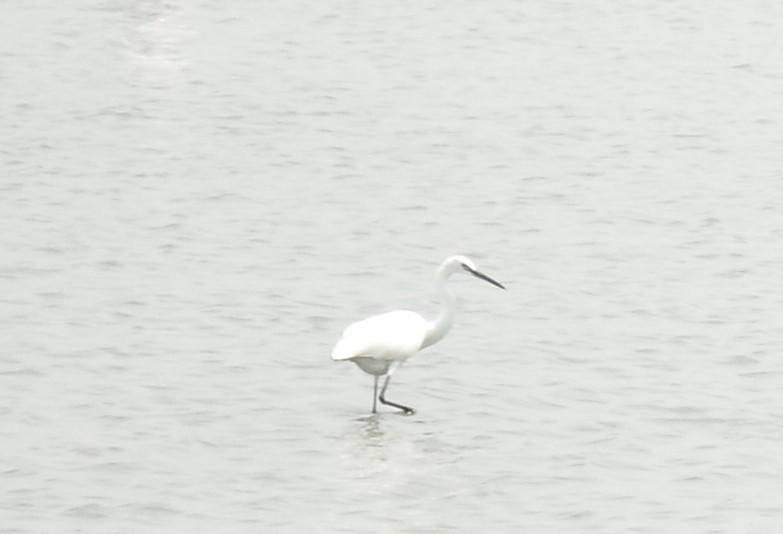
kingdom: Animalia
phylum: Chordata
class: Aves
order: Pelecaniformes
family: Ardeidae
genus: Egretta
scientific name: Egretta garzetta
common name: Little egret
